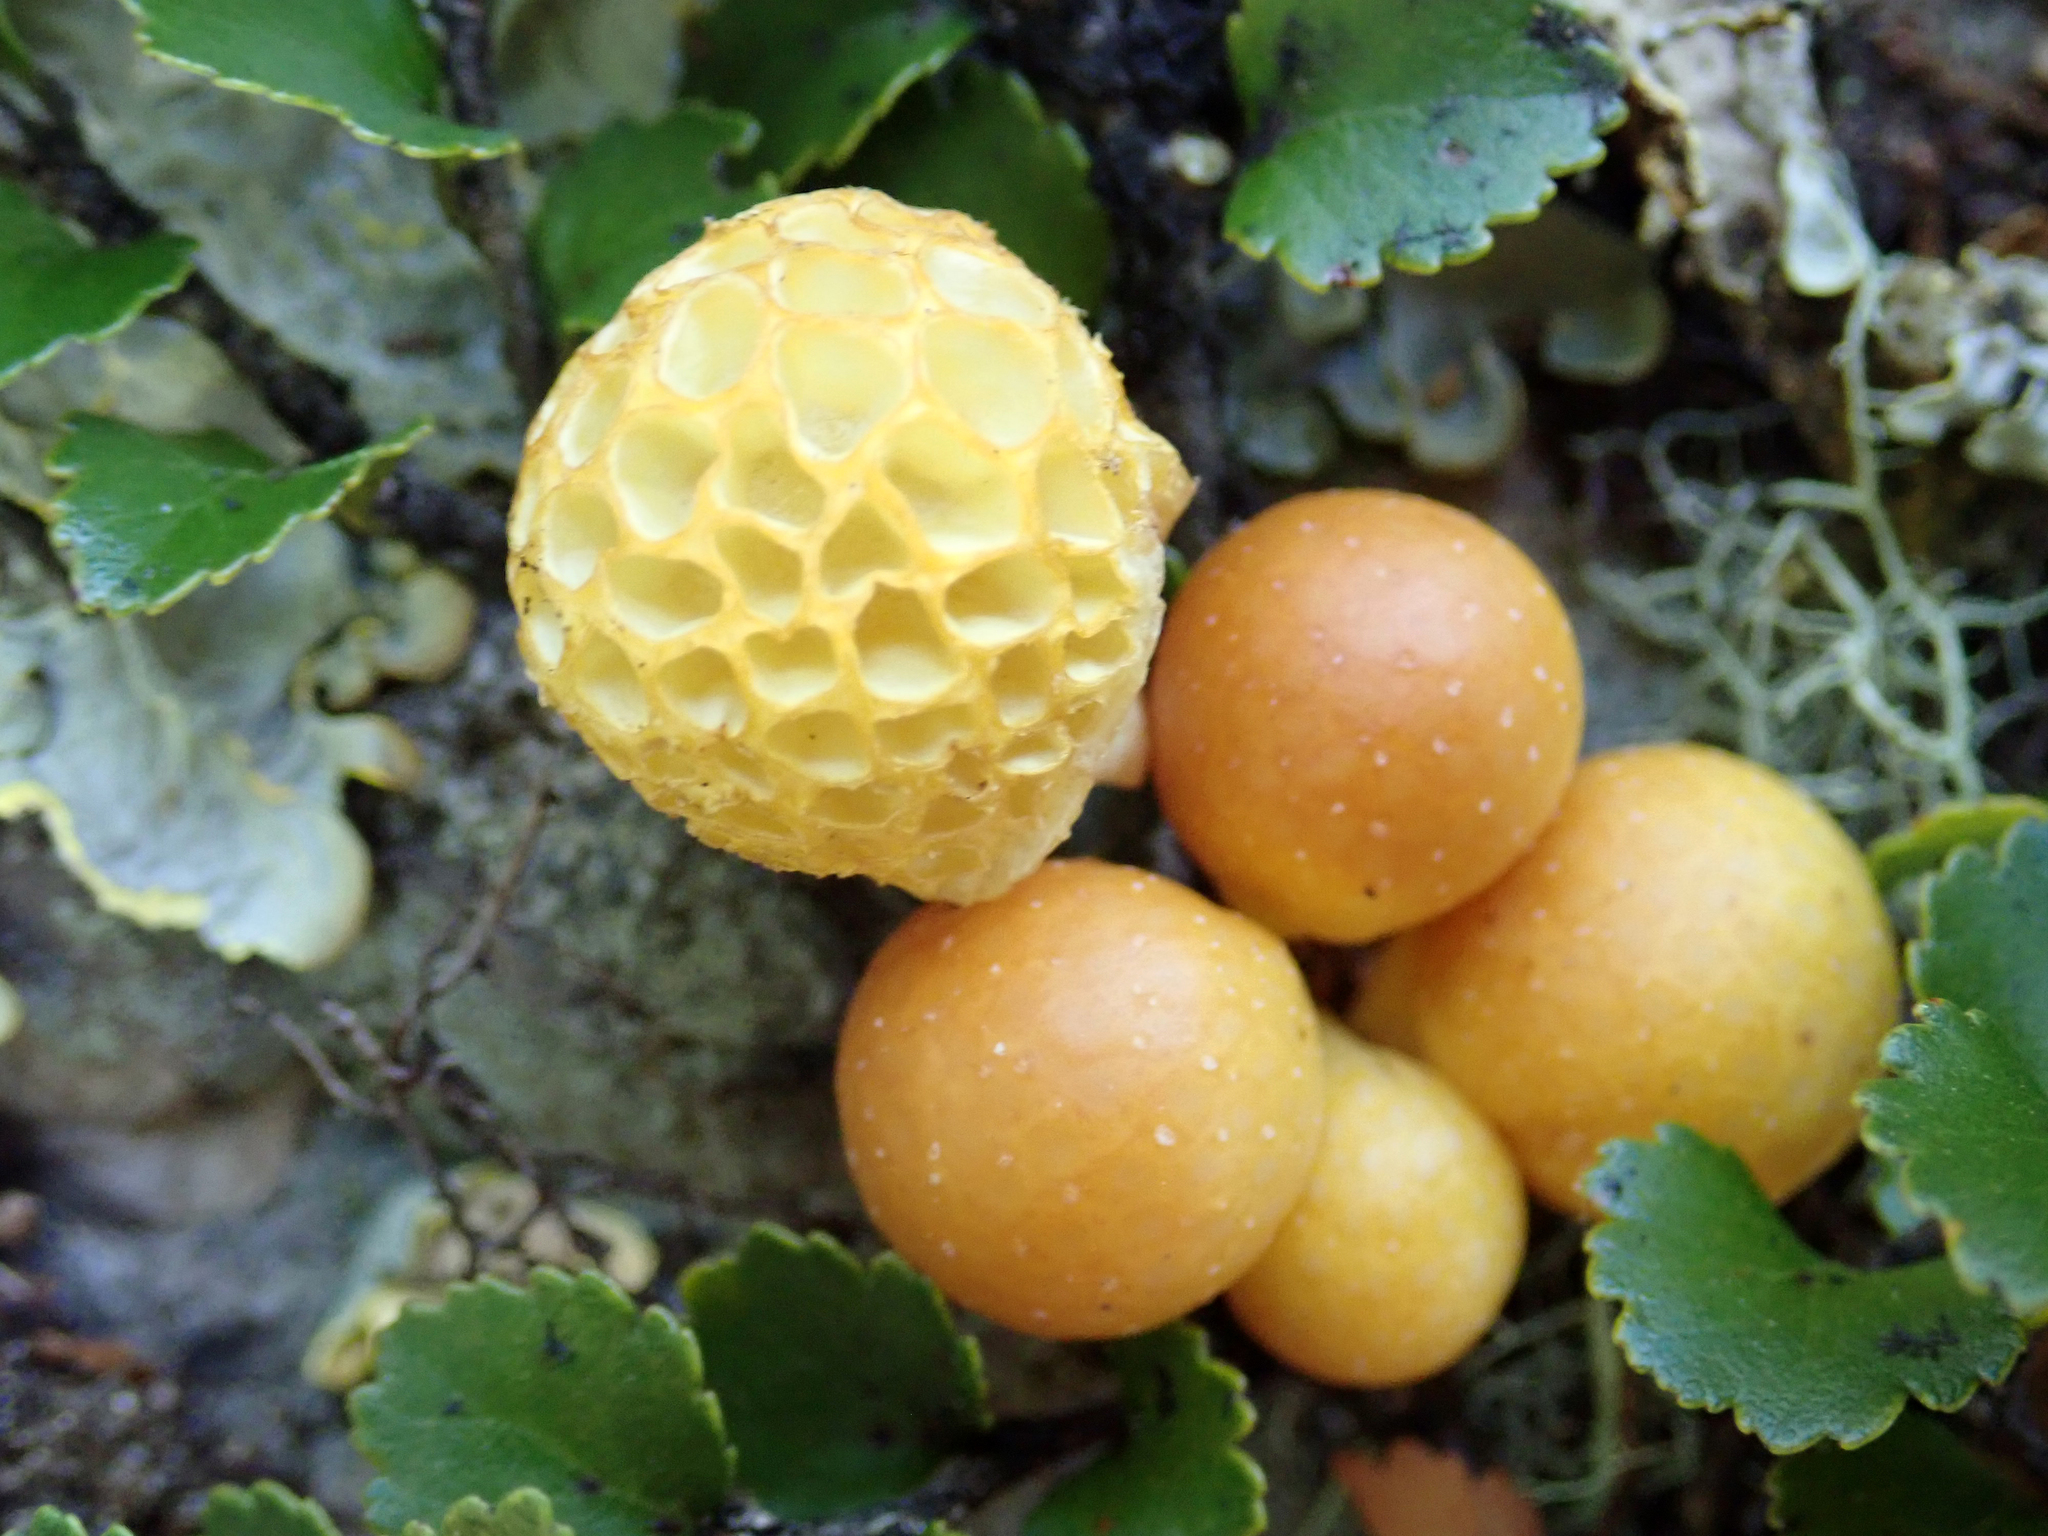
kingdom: Fungi
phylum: Ascomycota
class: Leotiomycetes
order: Cyttariales
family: Cyttariaceae
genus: Cyttaria
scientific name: Cyttaria gunnii
